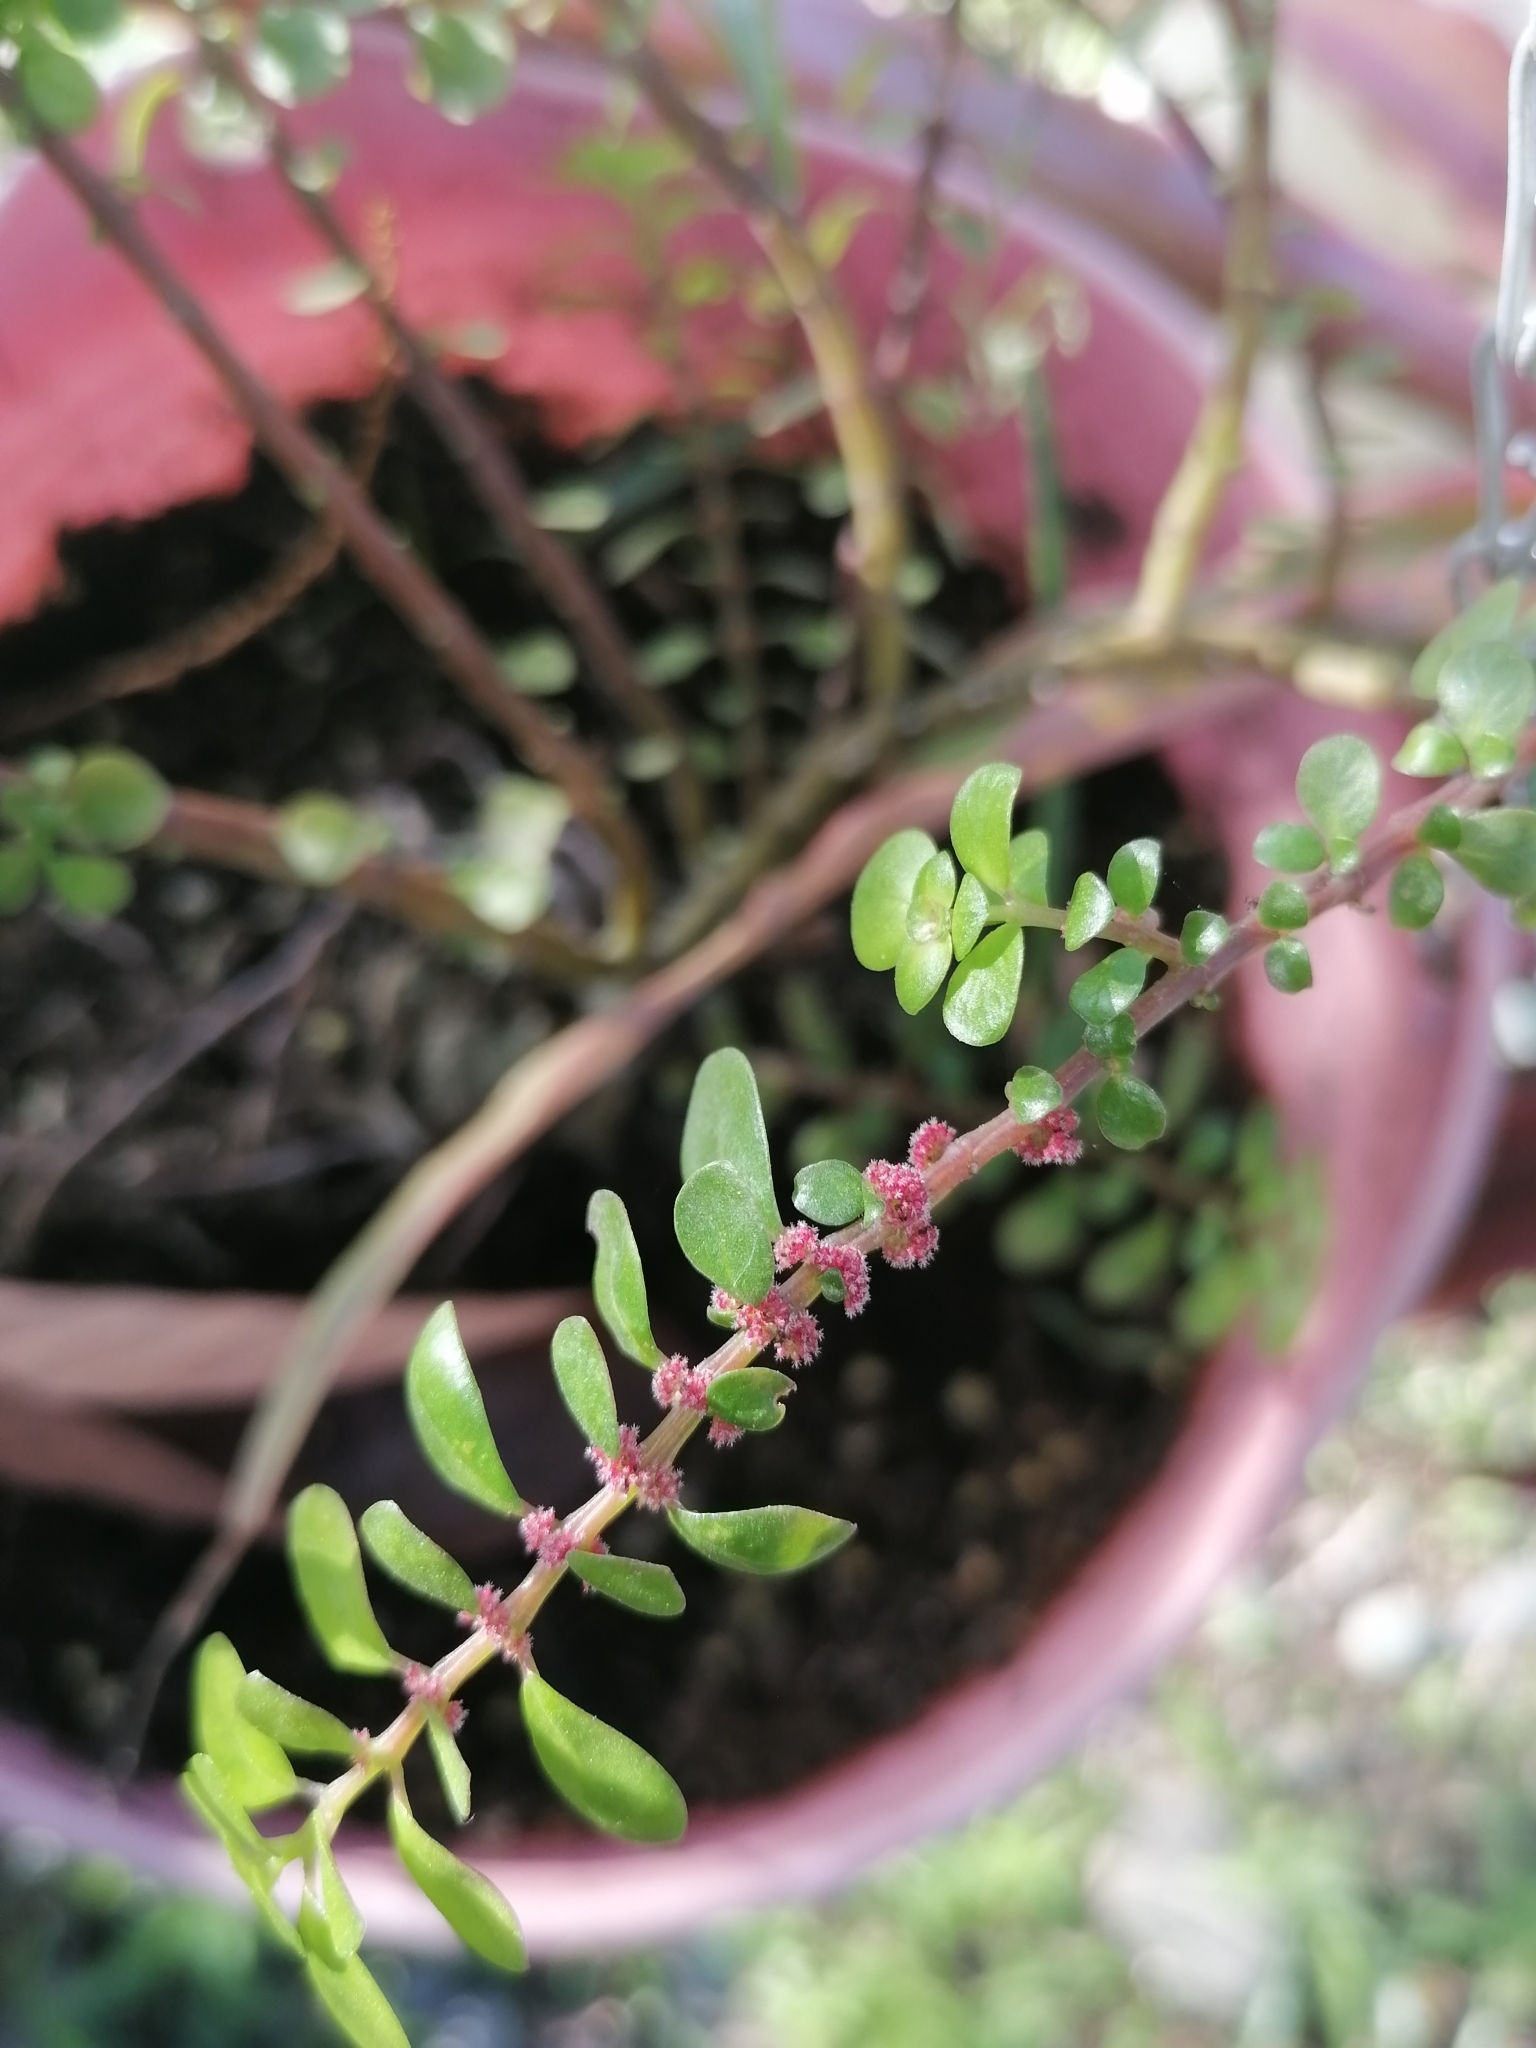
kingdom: Plantae
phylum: Tracheophyta
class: Magnoliopsida
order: Rosales
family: Urticaceae
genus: Pilea
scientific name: Pilea microphylla
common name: Artillery-plant
